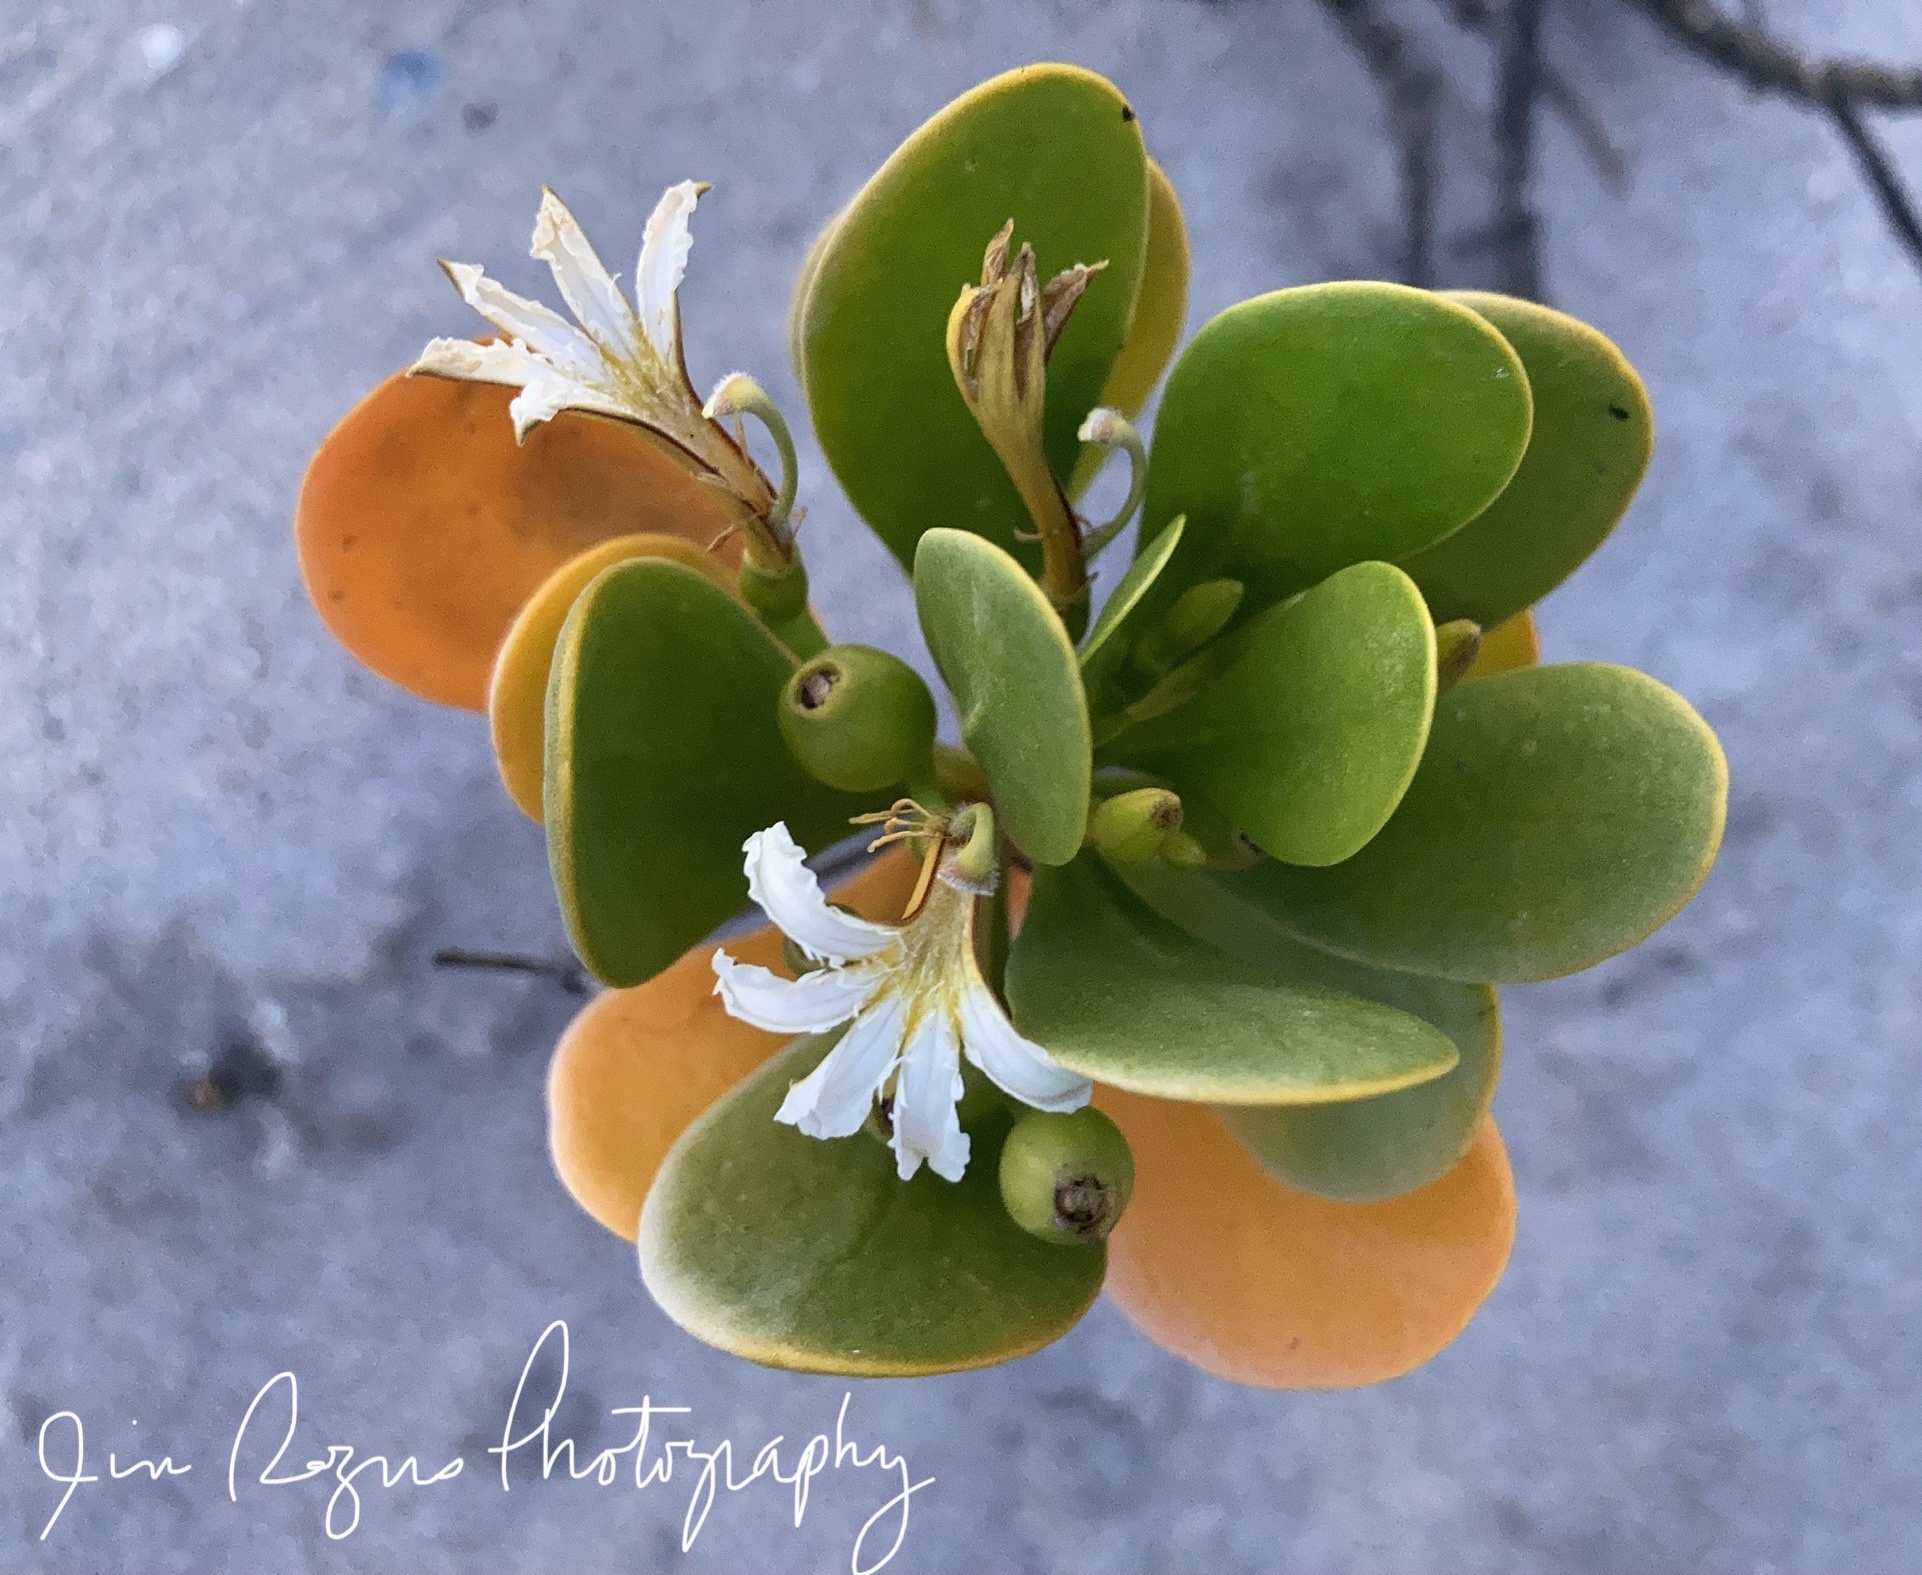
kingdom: Plantae
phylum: Tracheophyta
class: Magnoliopsida
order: Asterales
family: Goodeniaceae
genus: Scaevola
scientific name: Scaevola plumieri
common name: Gull feed
